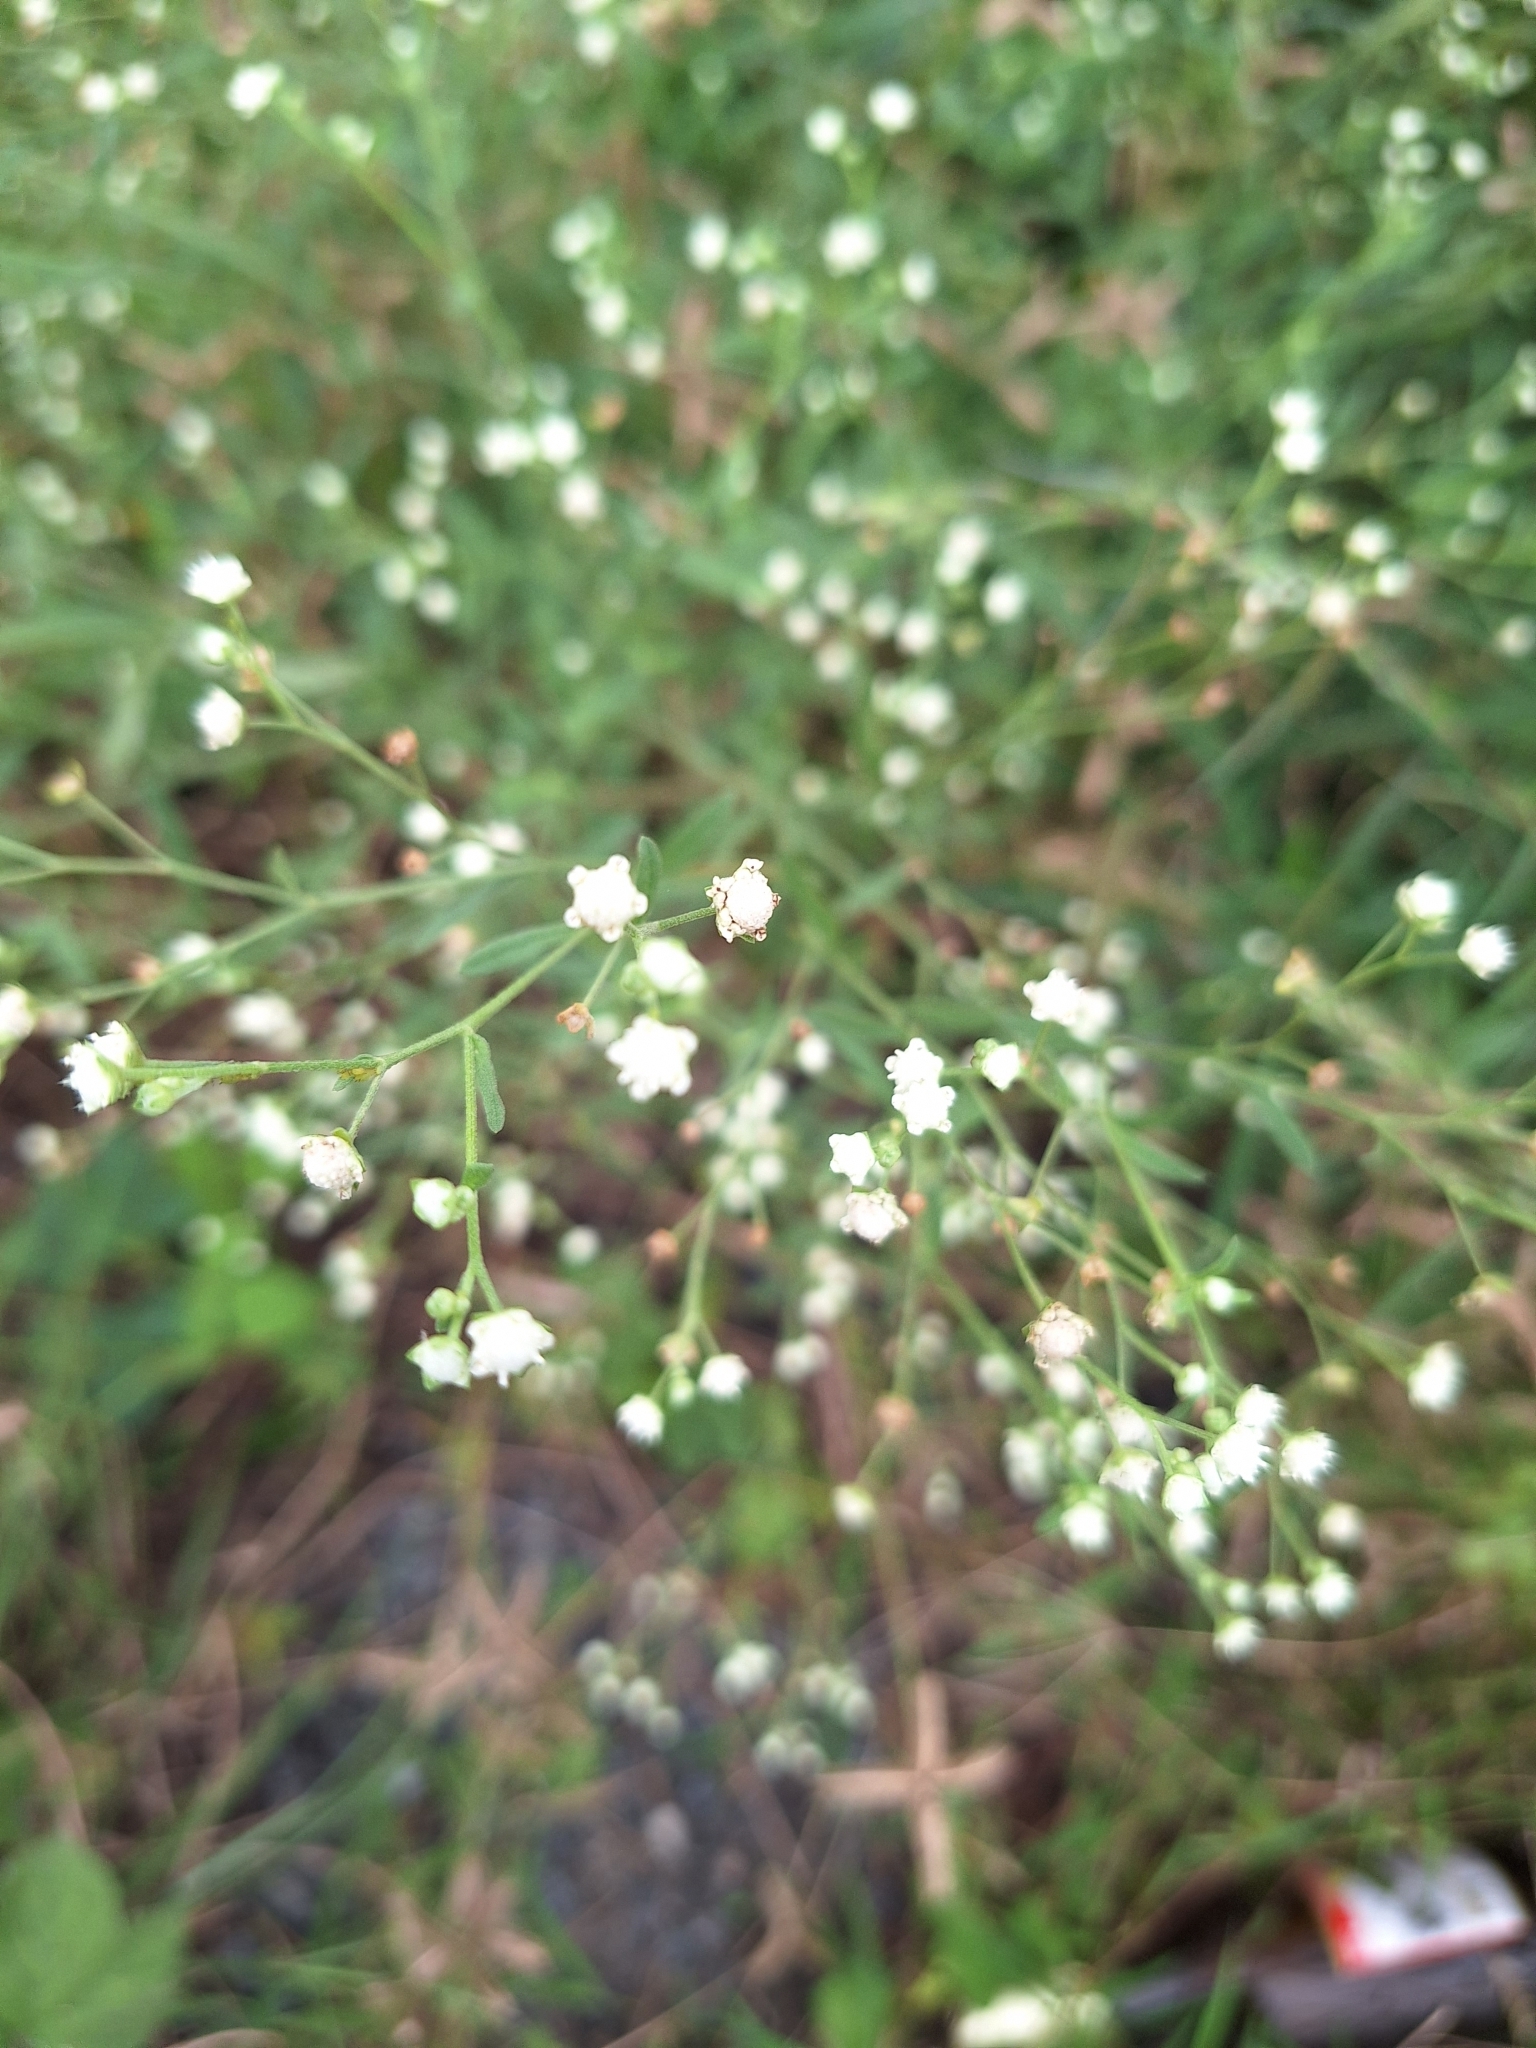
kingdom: Plantae
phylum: Tracheophyta
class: Magnoliopsida
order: Asterales
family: Asteraceae
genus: Parthenium
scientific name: Parthenium hysterophorus
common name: Santa maria feverfew
